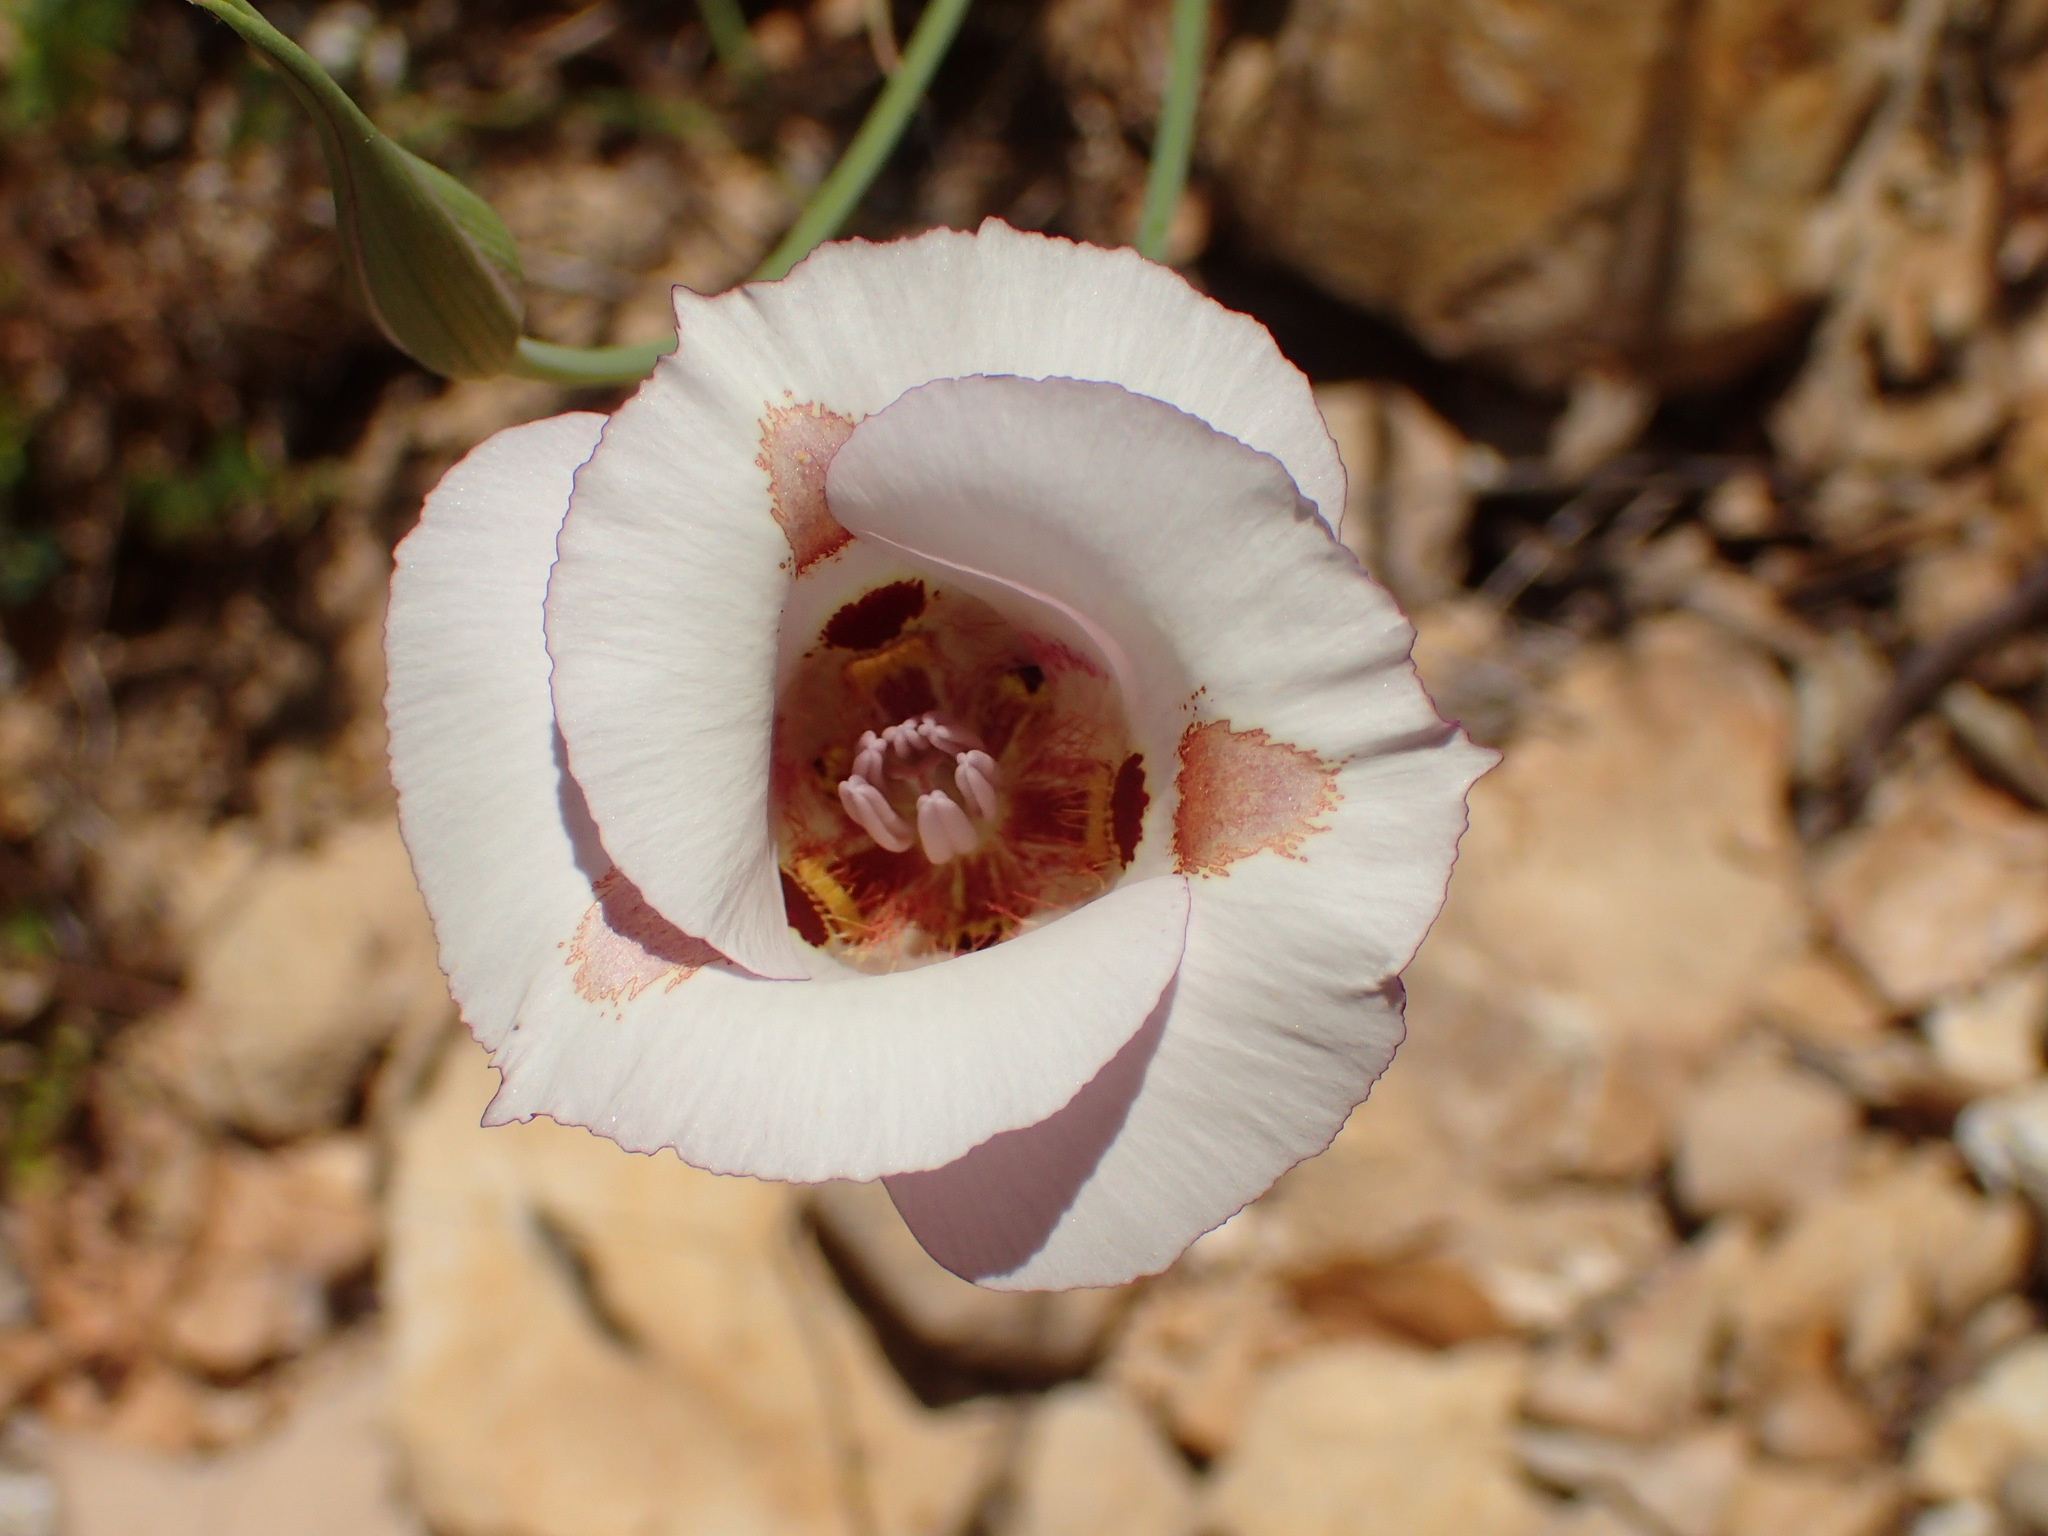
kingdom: Plantae
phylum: Tracheophyta
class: Liliopsida
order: Liliales
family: Liliaceae
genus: Calochortus
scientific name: Calochortus venustus
